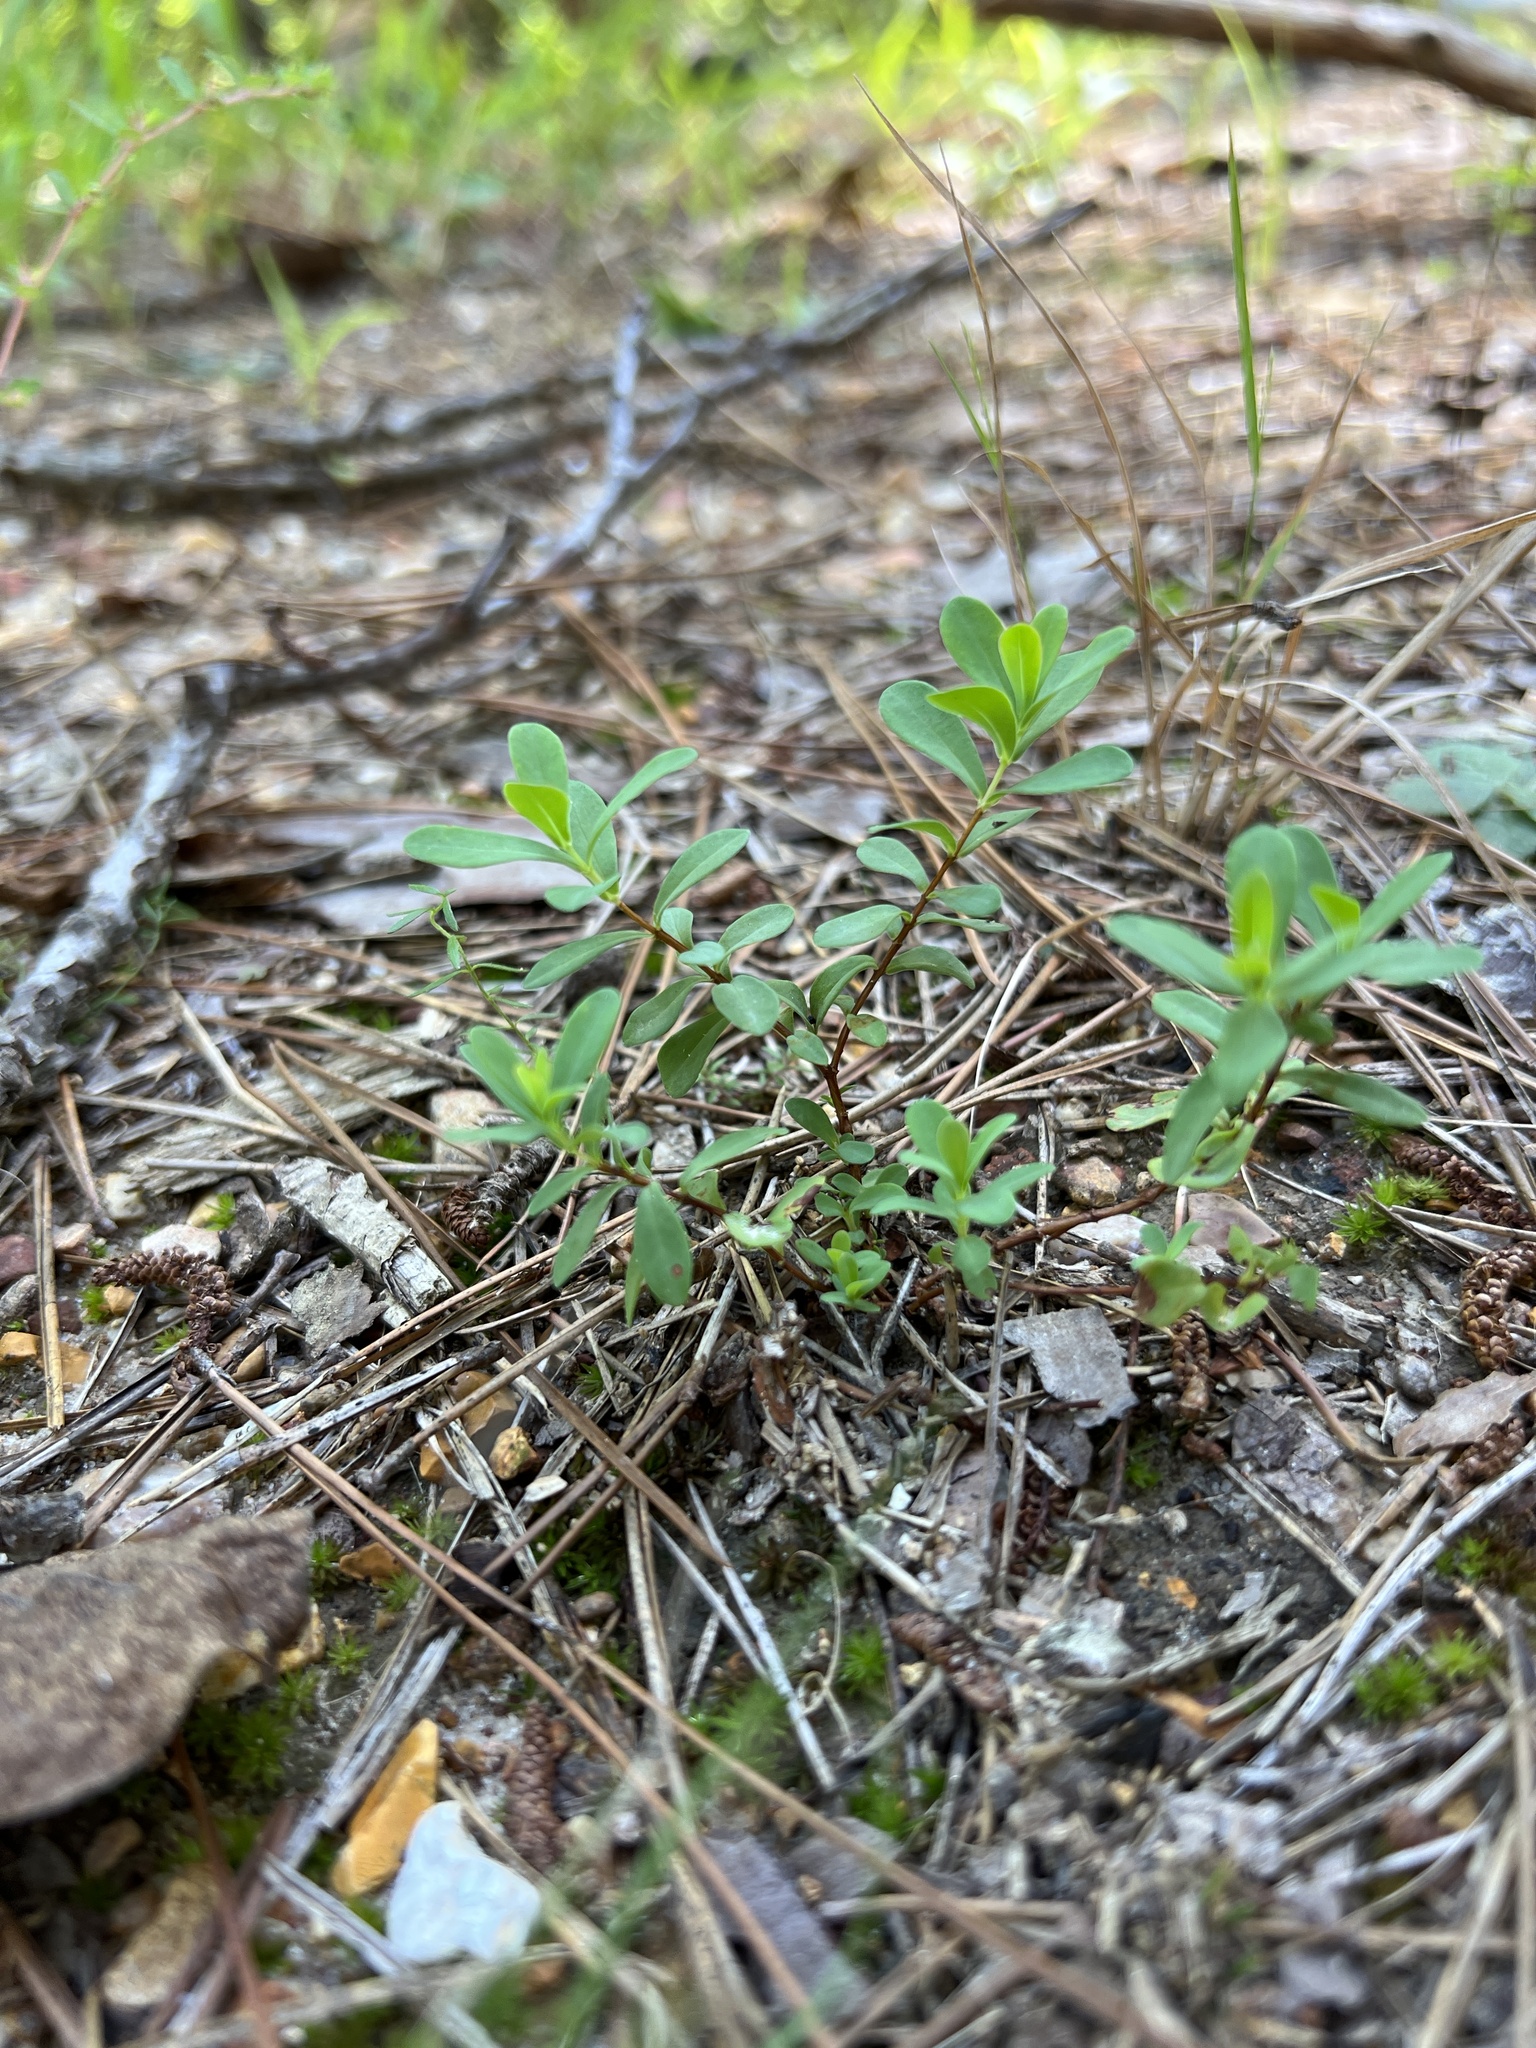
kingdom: Plantae
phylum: Tracheophyta
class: Magnoliopsida
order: Malpighiales
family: Hypericaceae
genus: Hypericum
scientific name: Hypericum hypericoides
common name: St. andrew's cross
